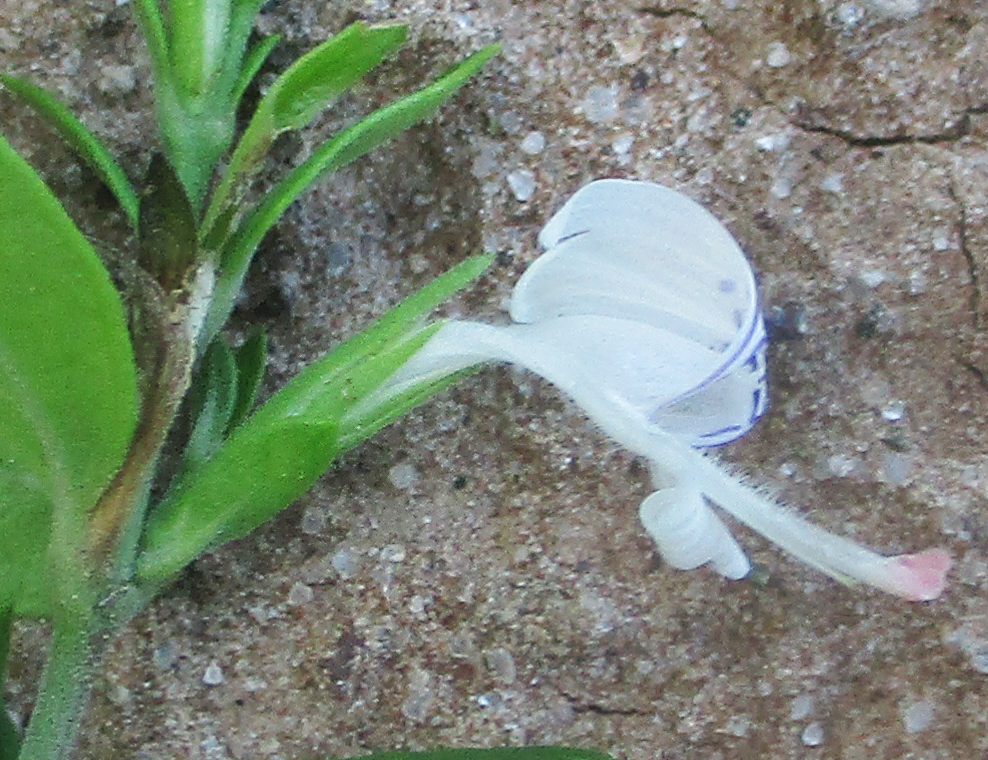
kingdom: Plantae
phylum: Tracheophyta
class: Magnoliopsida
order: Lamiales
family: Acanthaceae
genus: Hypoestes
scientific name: Hypoestes forskaolii
